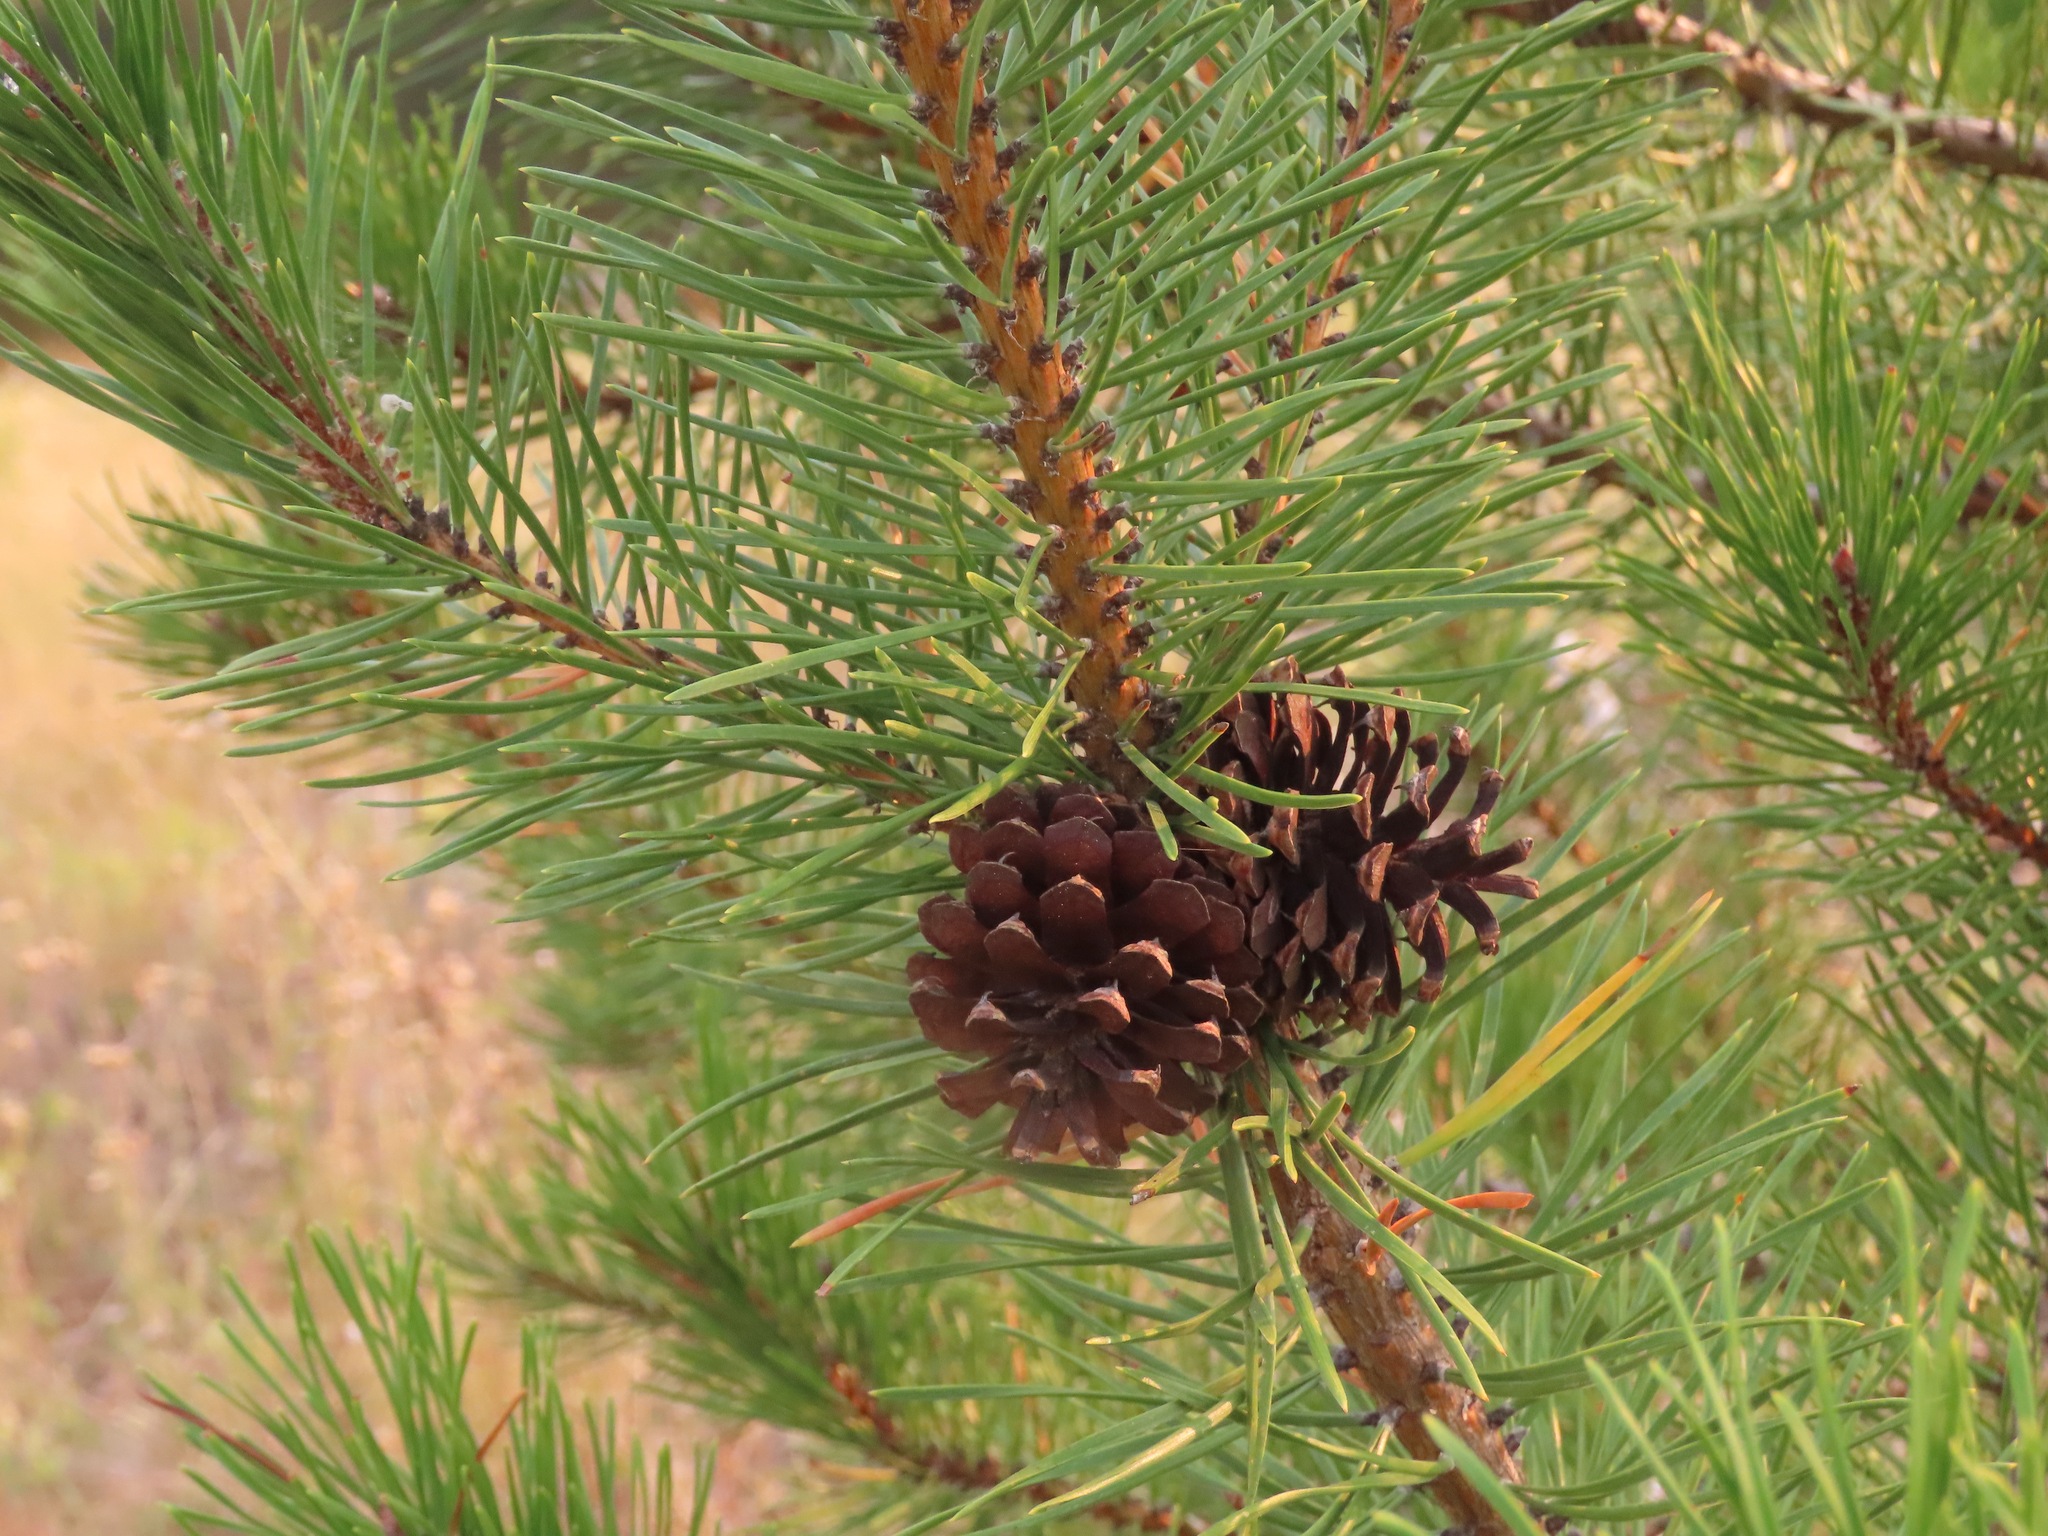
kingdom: Plantae
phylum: Tracheophyta
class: Pinopsida
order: Pinales
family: Pinaceae
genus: Pinus
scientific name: Pinus contorta
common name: Lodgepole pine
